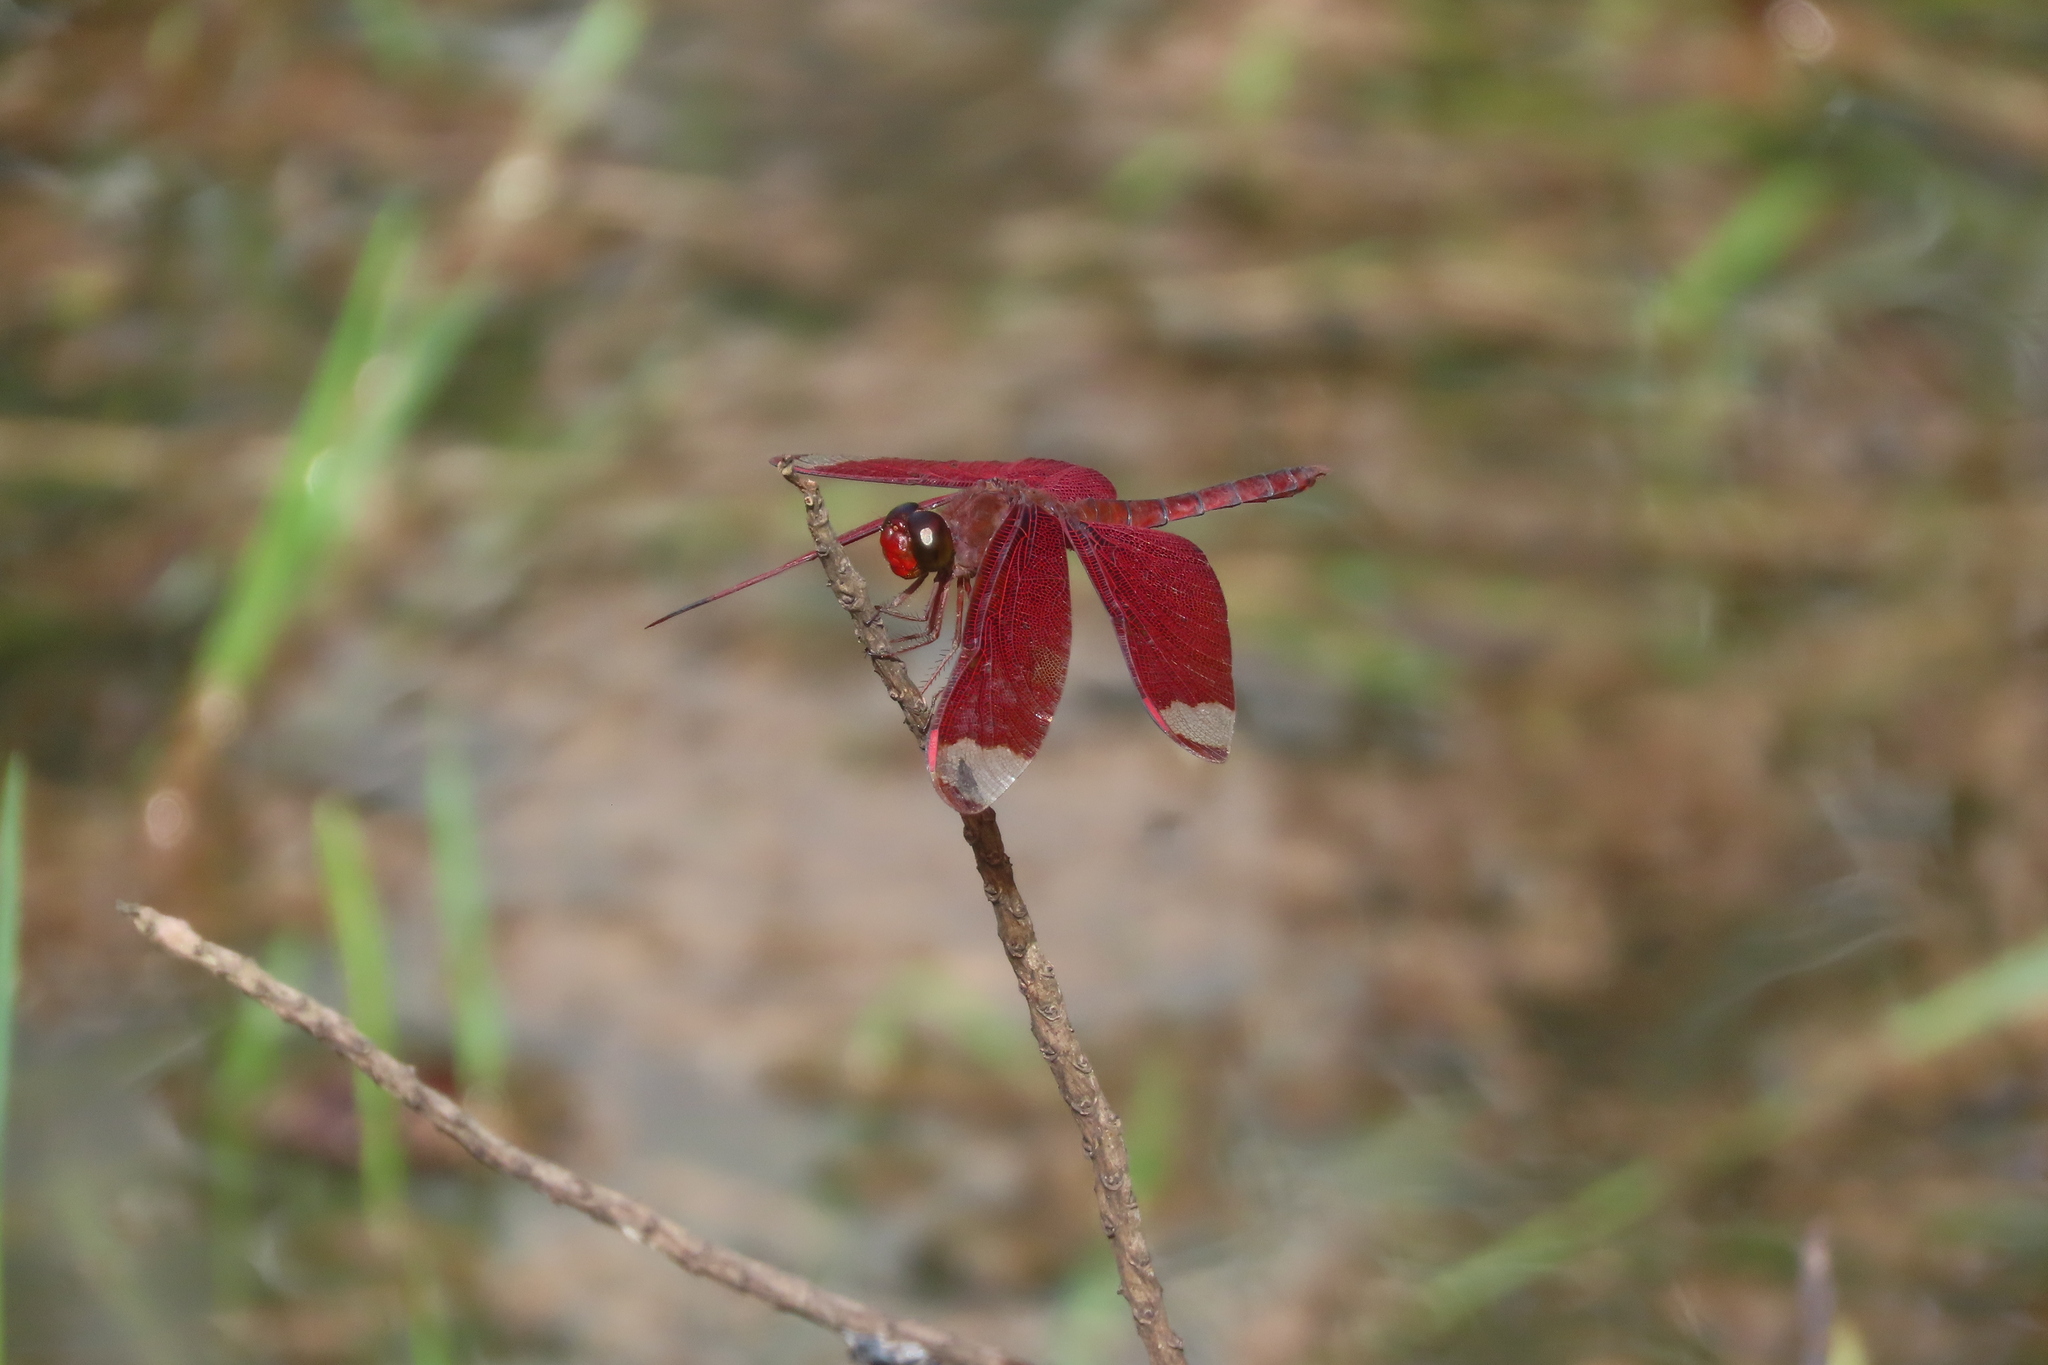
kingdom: Animalia
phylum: Arthropoda
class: Insecta
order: Odonata
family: Libellulidae
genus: Neurothemis
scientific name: Neurothemis fulvia
